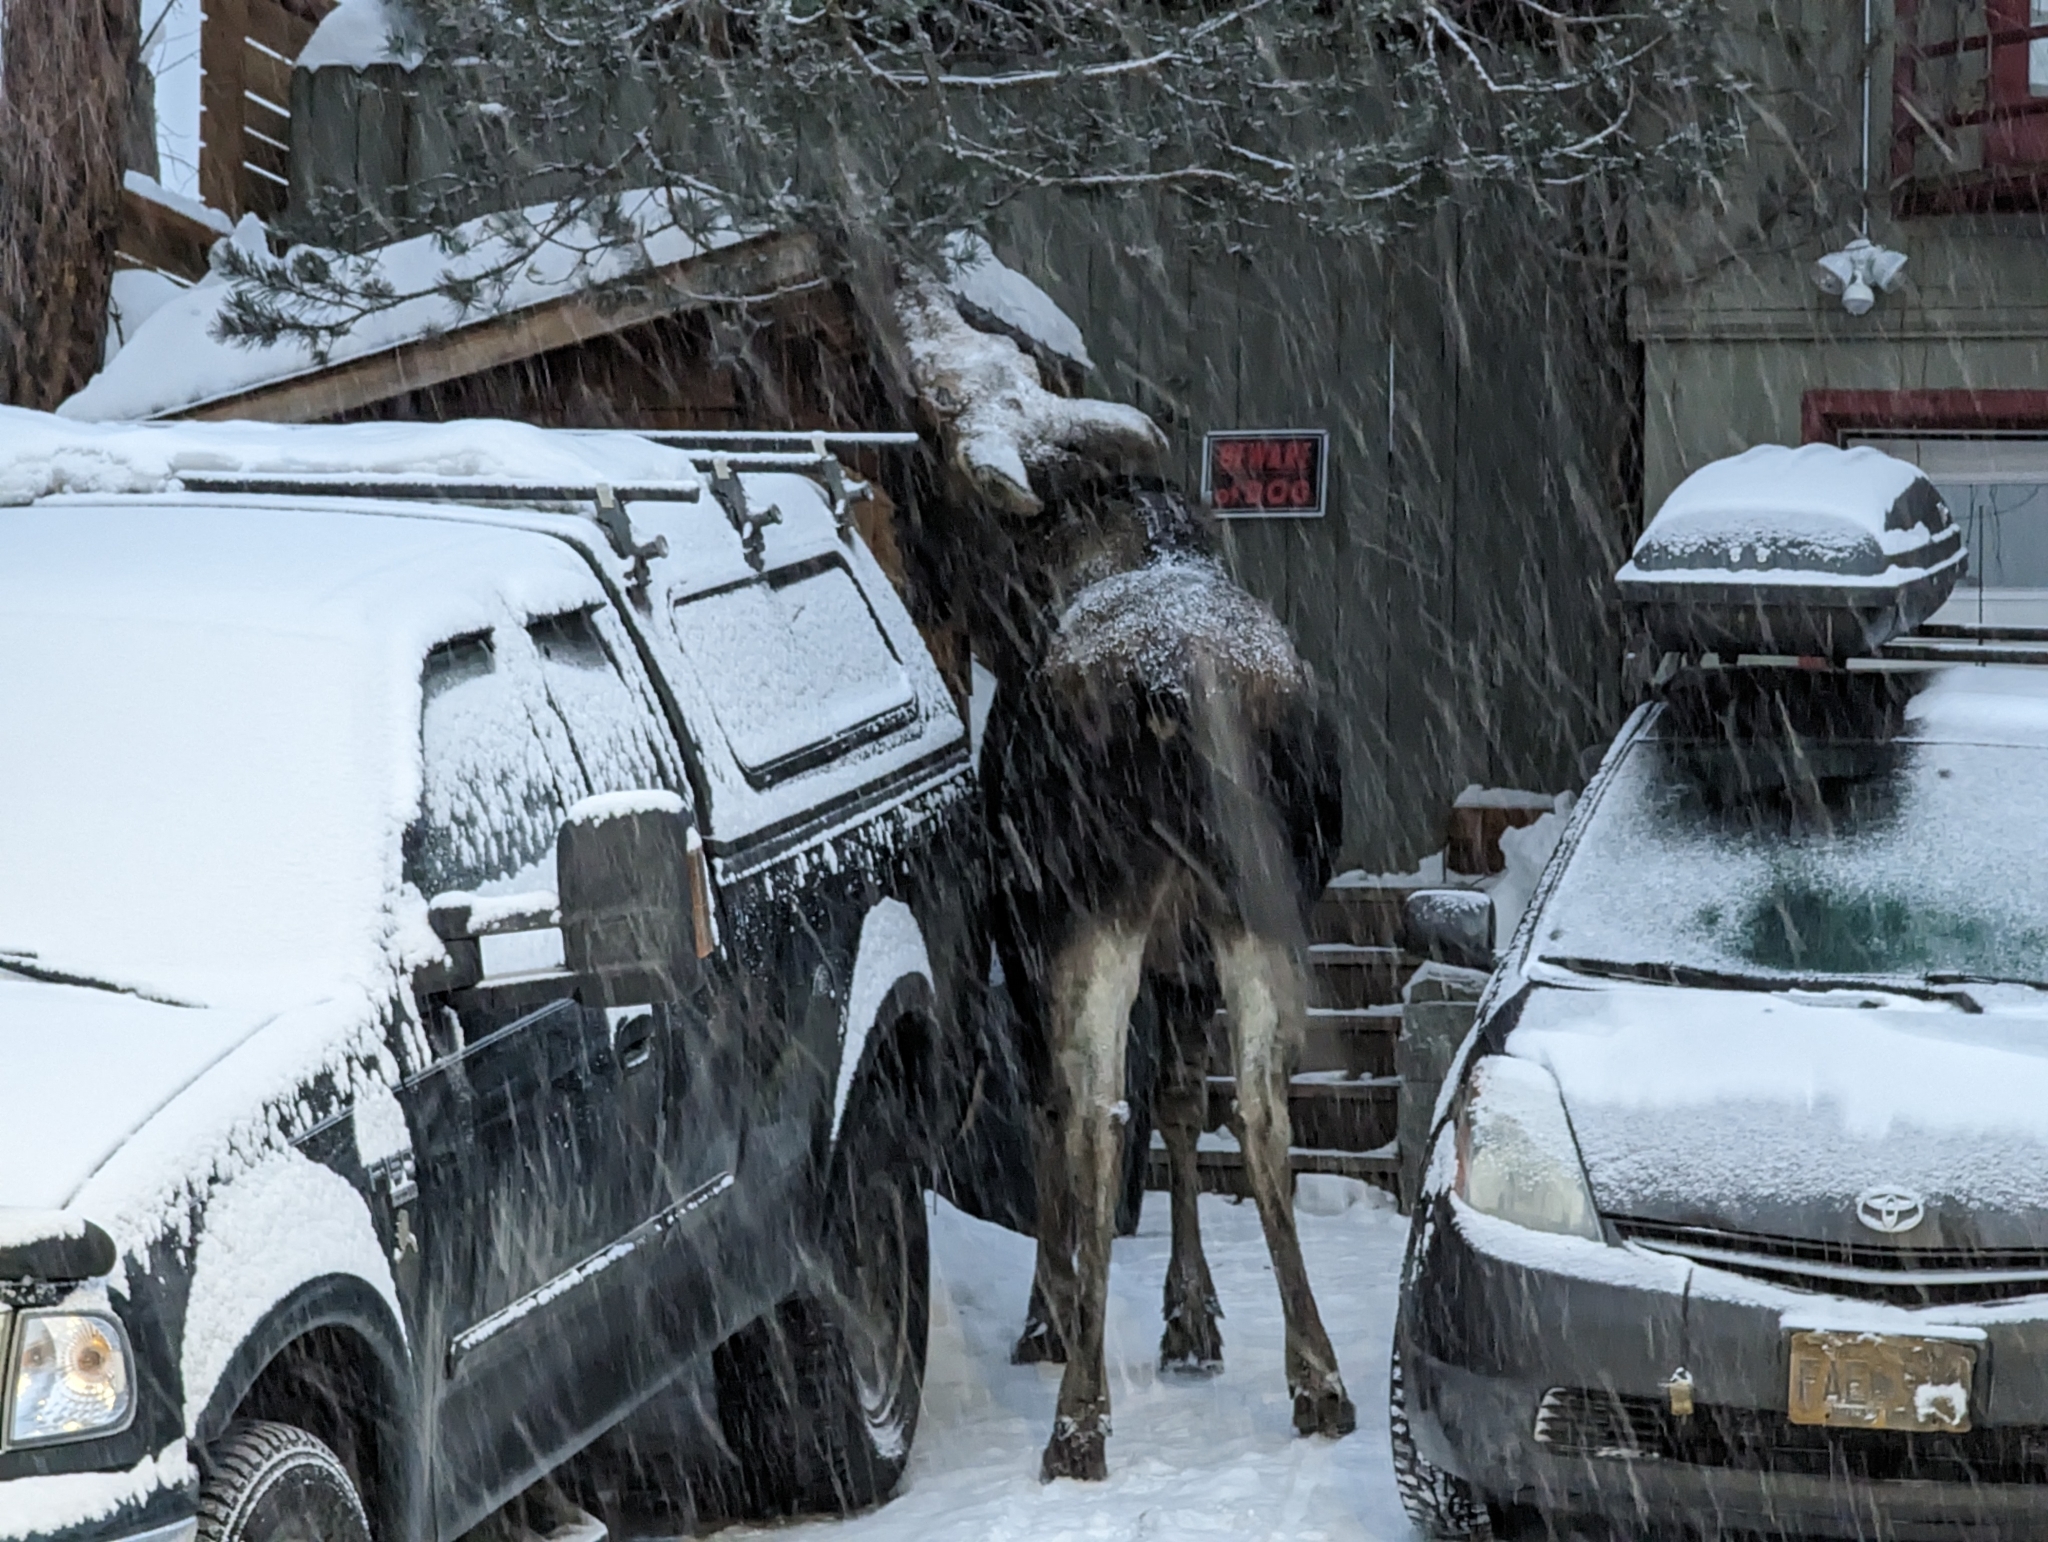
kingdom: Animalia
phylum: Chordata
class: Mammalia
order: Artiodactyla
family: Cervidae
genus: Alces
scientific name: Alces americanus
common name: Moose
